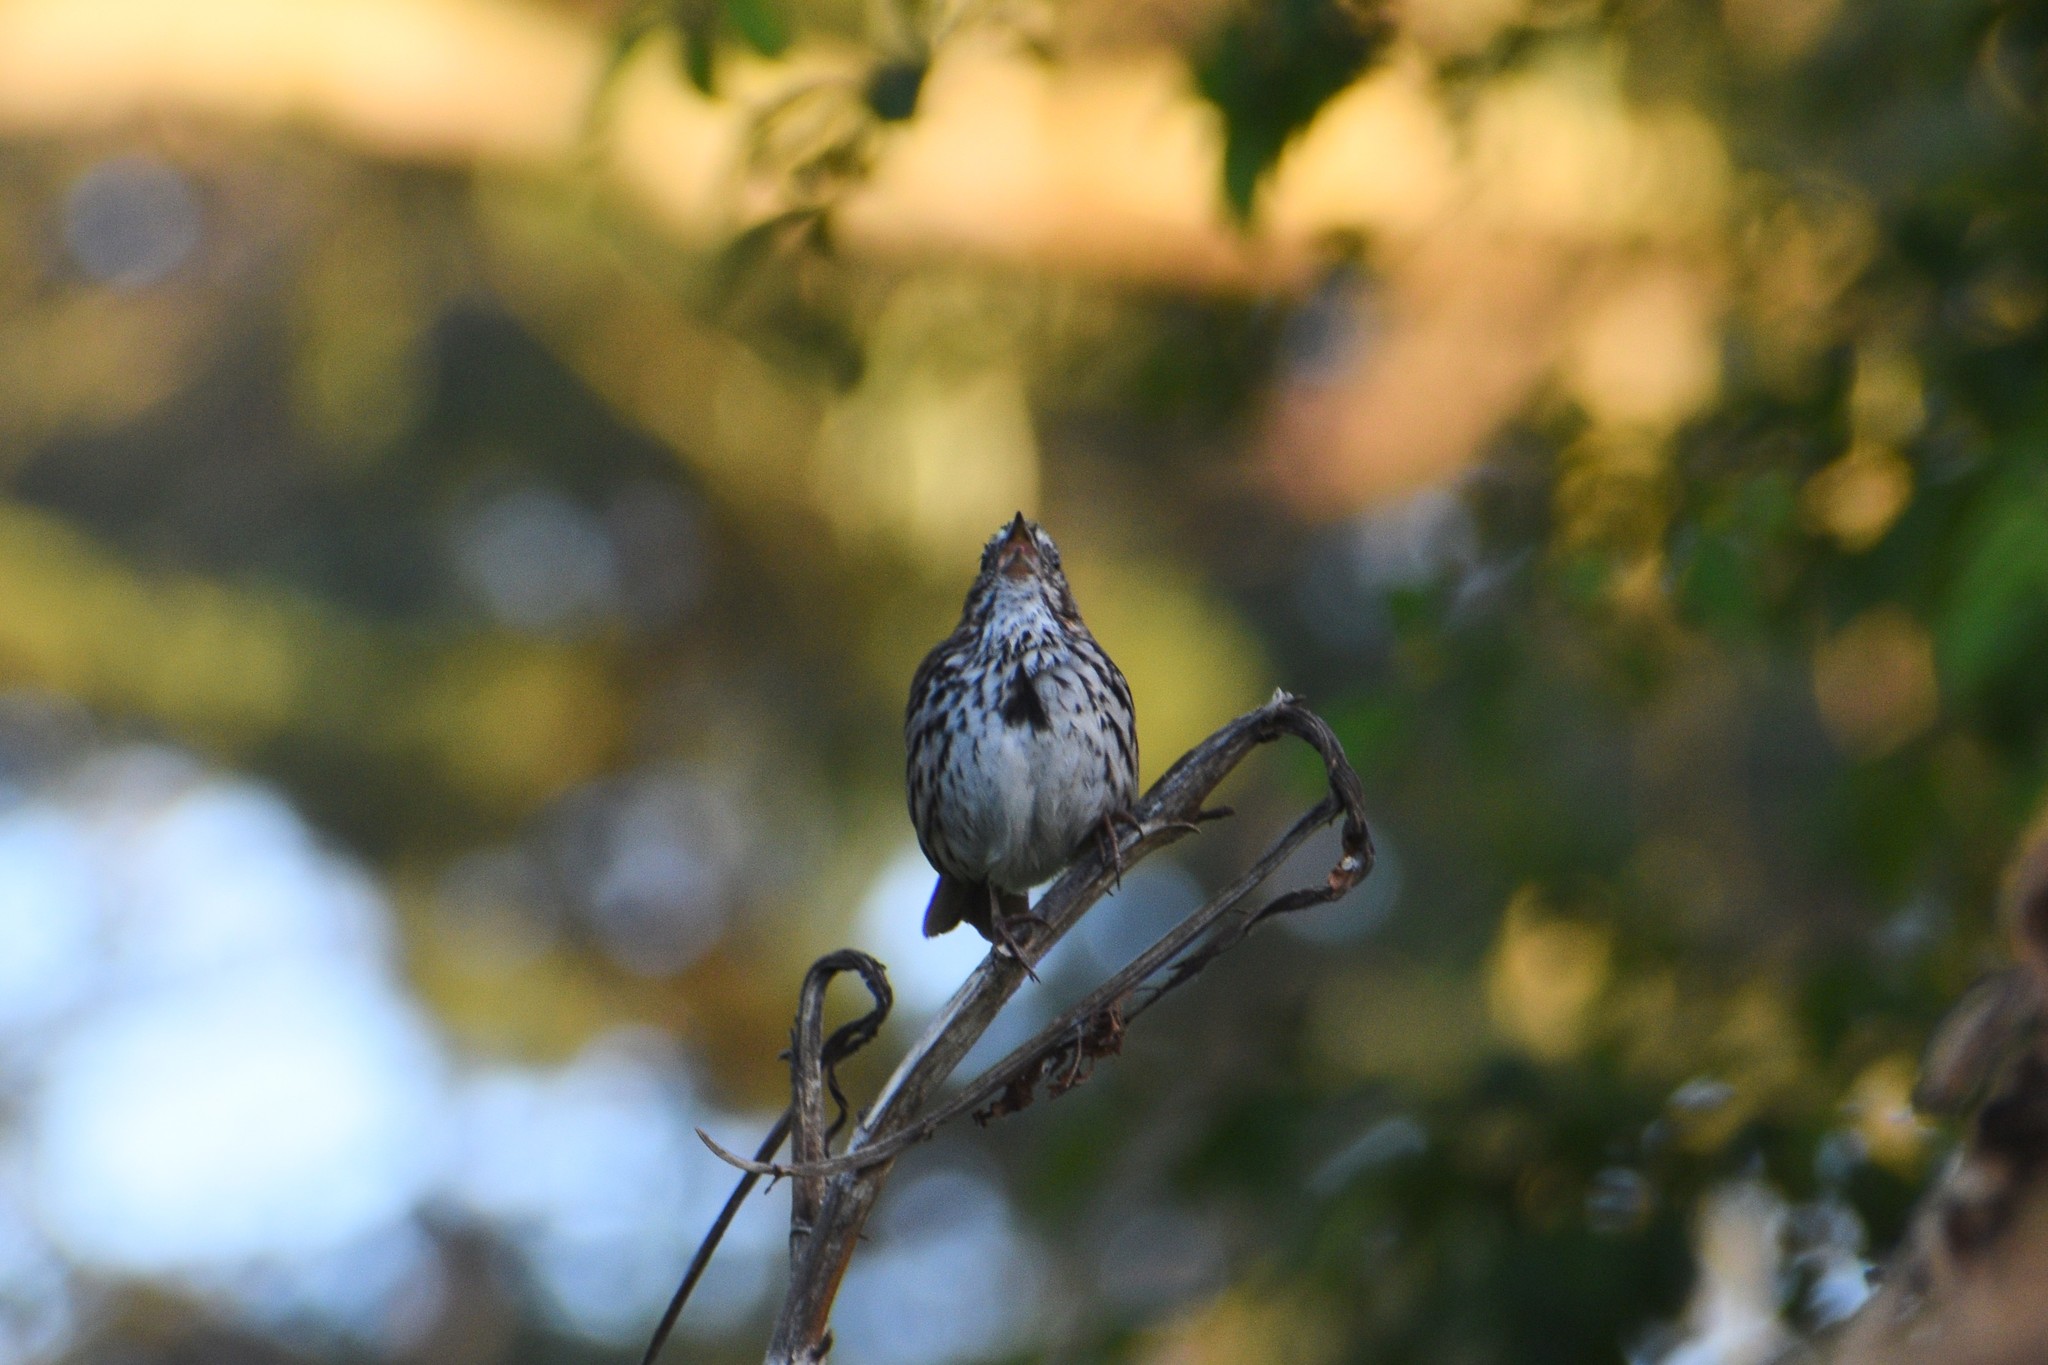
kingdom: Animalia
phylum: Chordata
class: Aves
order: Passeriformes
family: Passerellidae
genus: Melospiza
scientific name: Melospiza melodia
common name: Song sparrow
